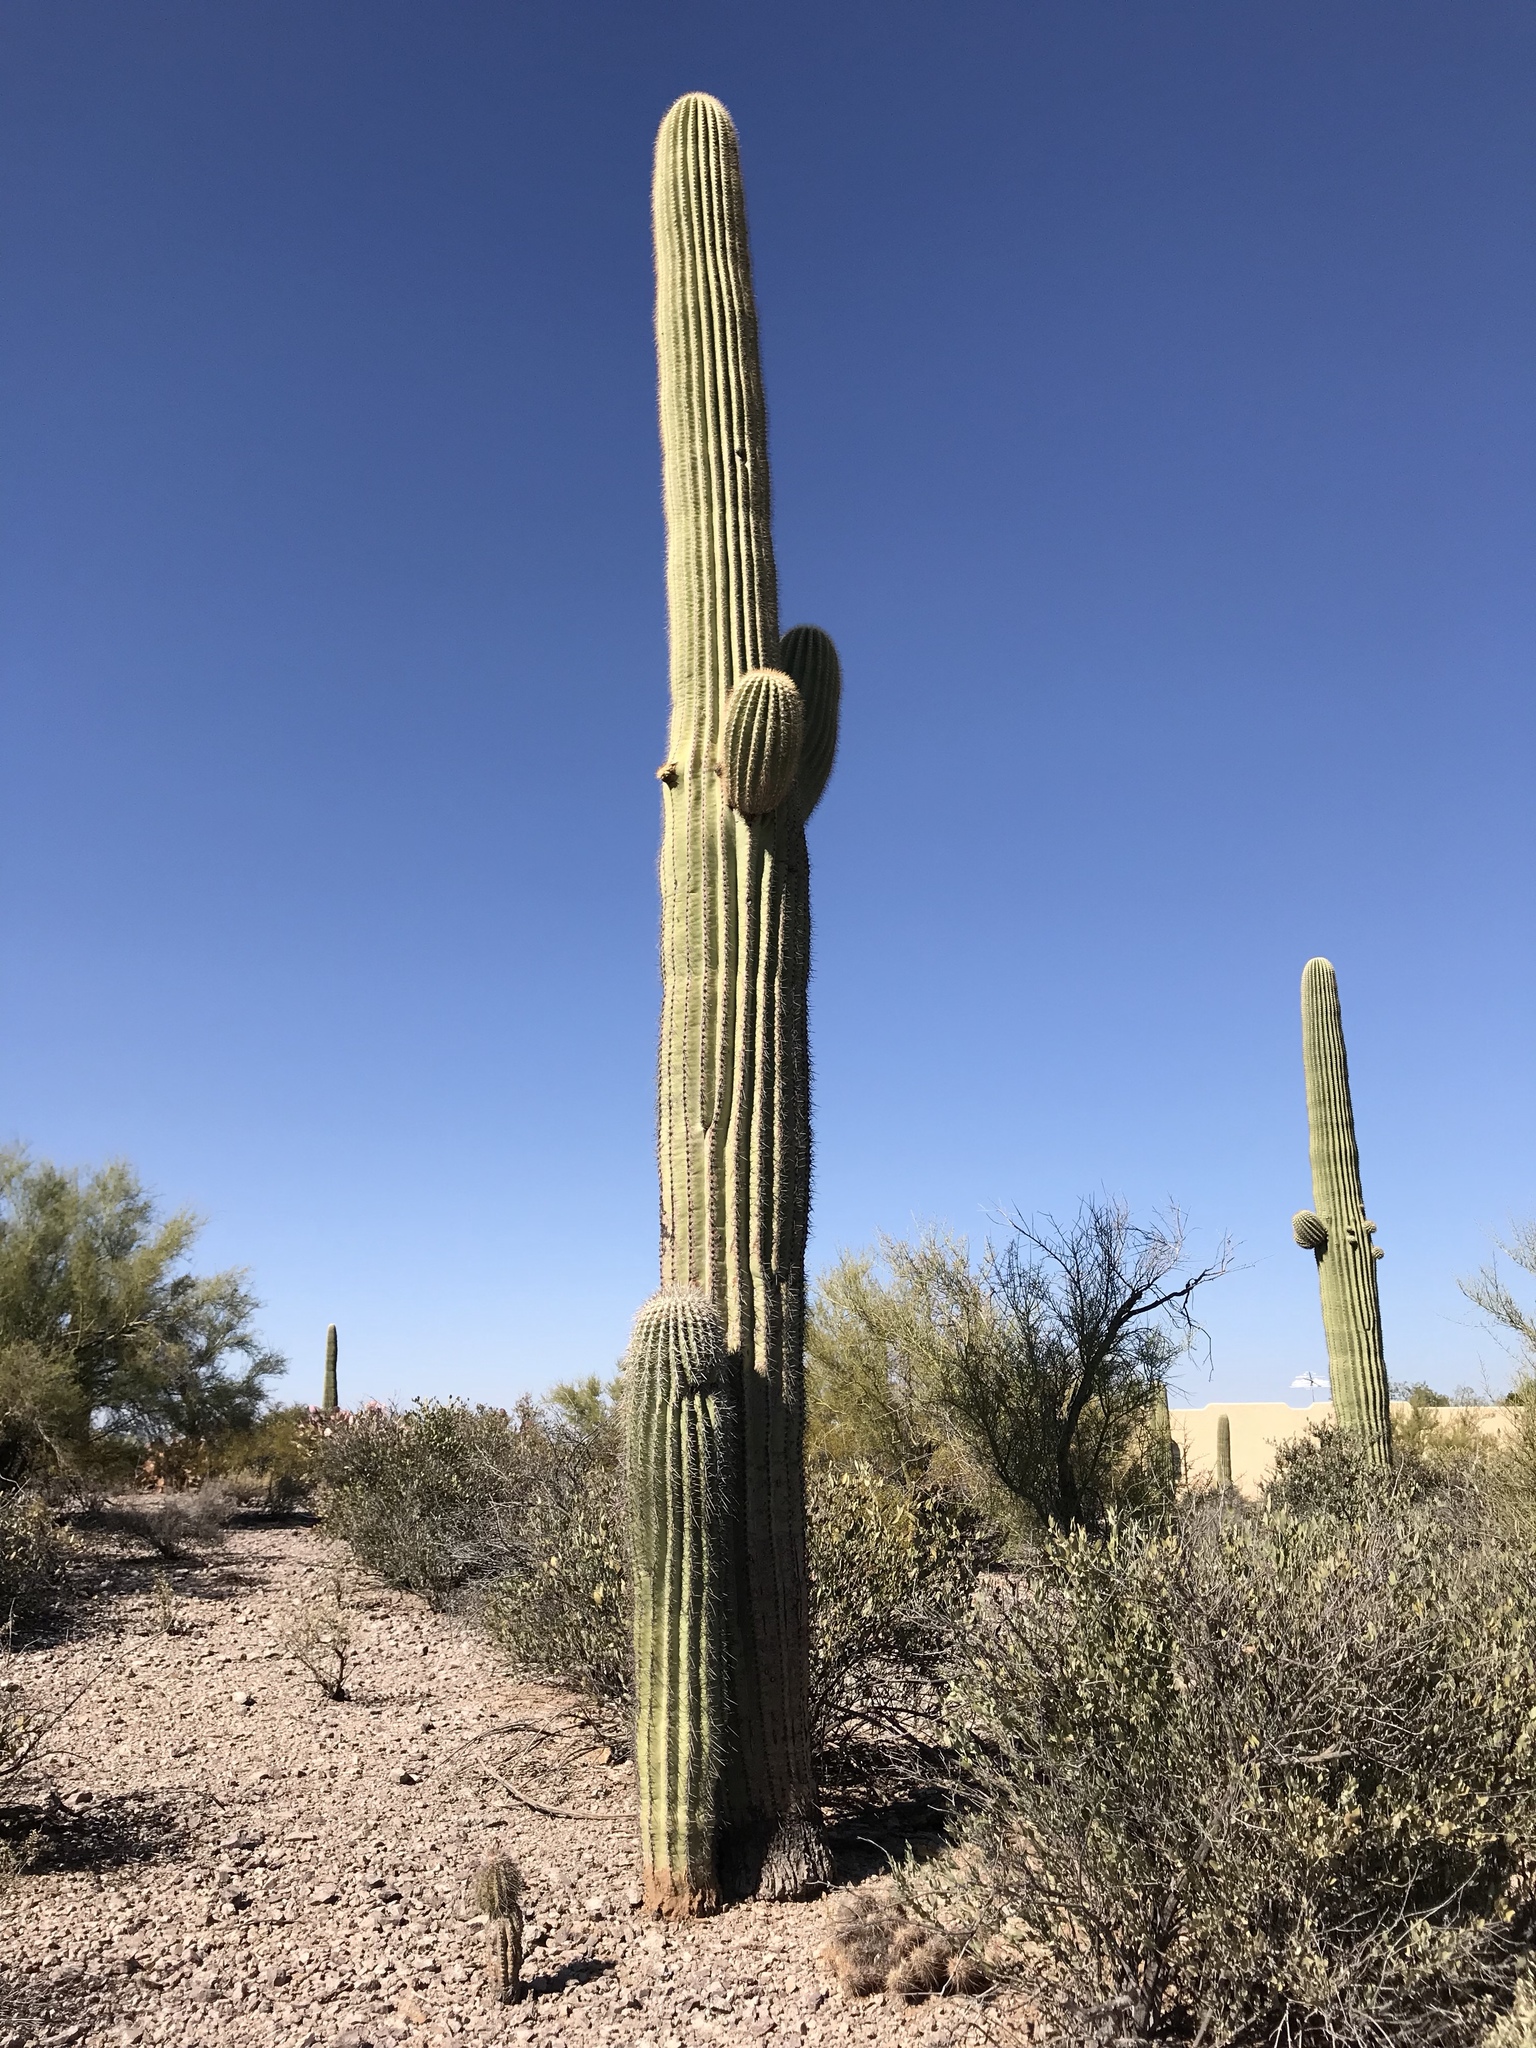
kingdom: Plantae
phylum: Tracheophyta
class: Magnoliopsida
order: Caryophyllales
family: Cactaceae
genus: Carnegiea
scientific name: Carnegiea gigantea
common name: Saguaro
